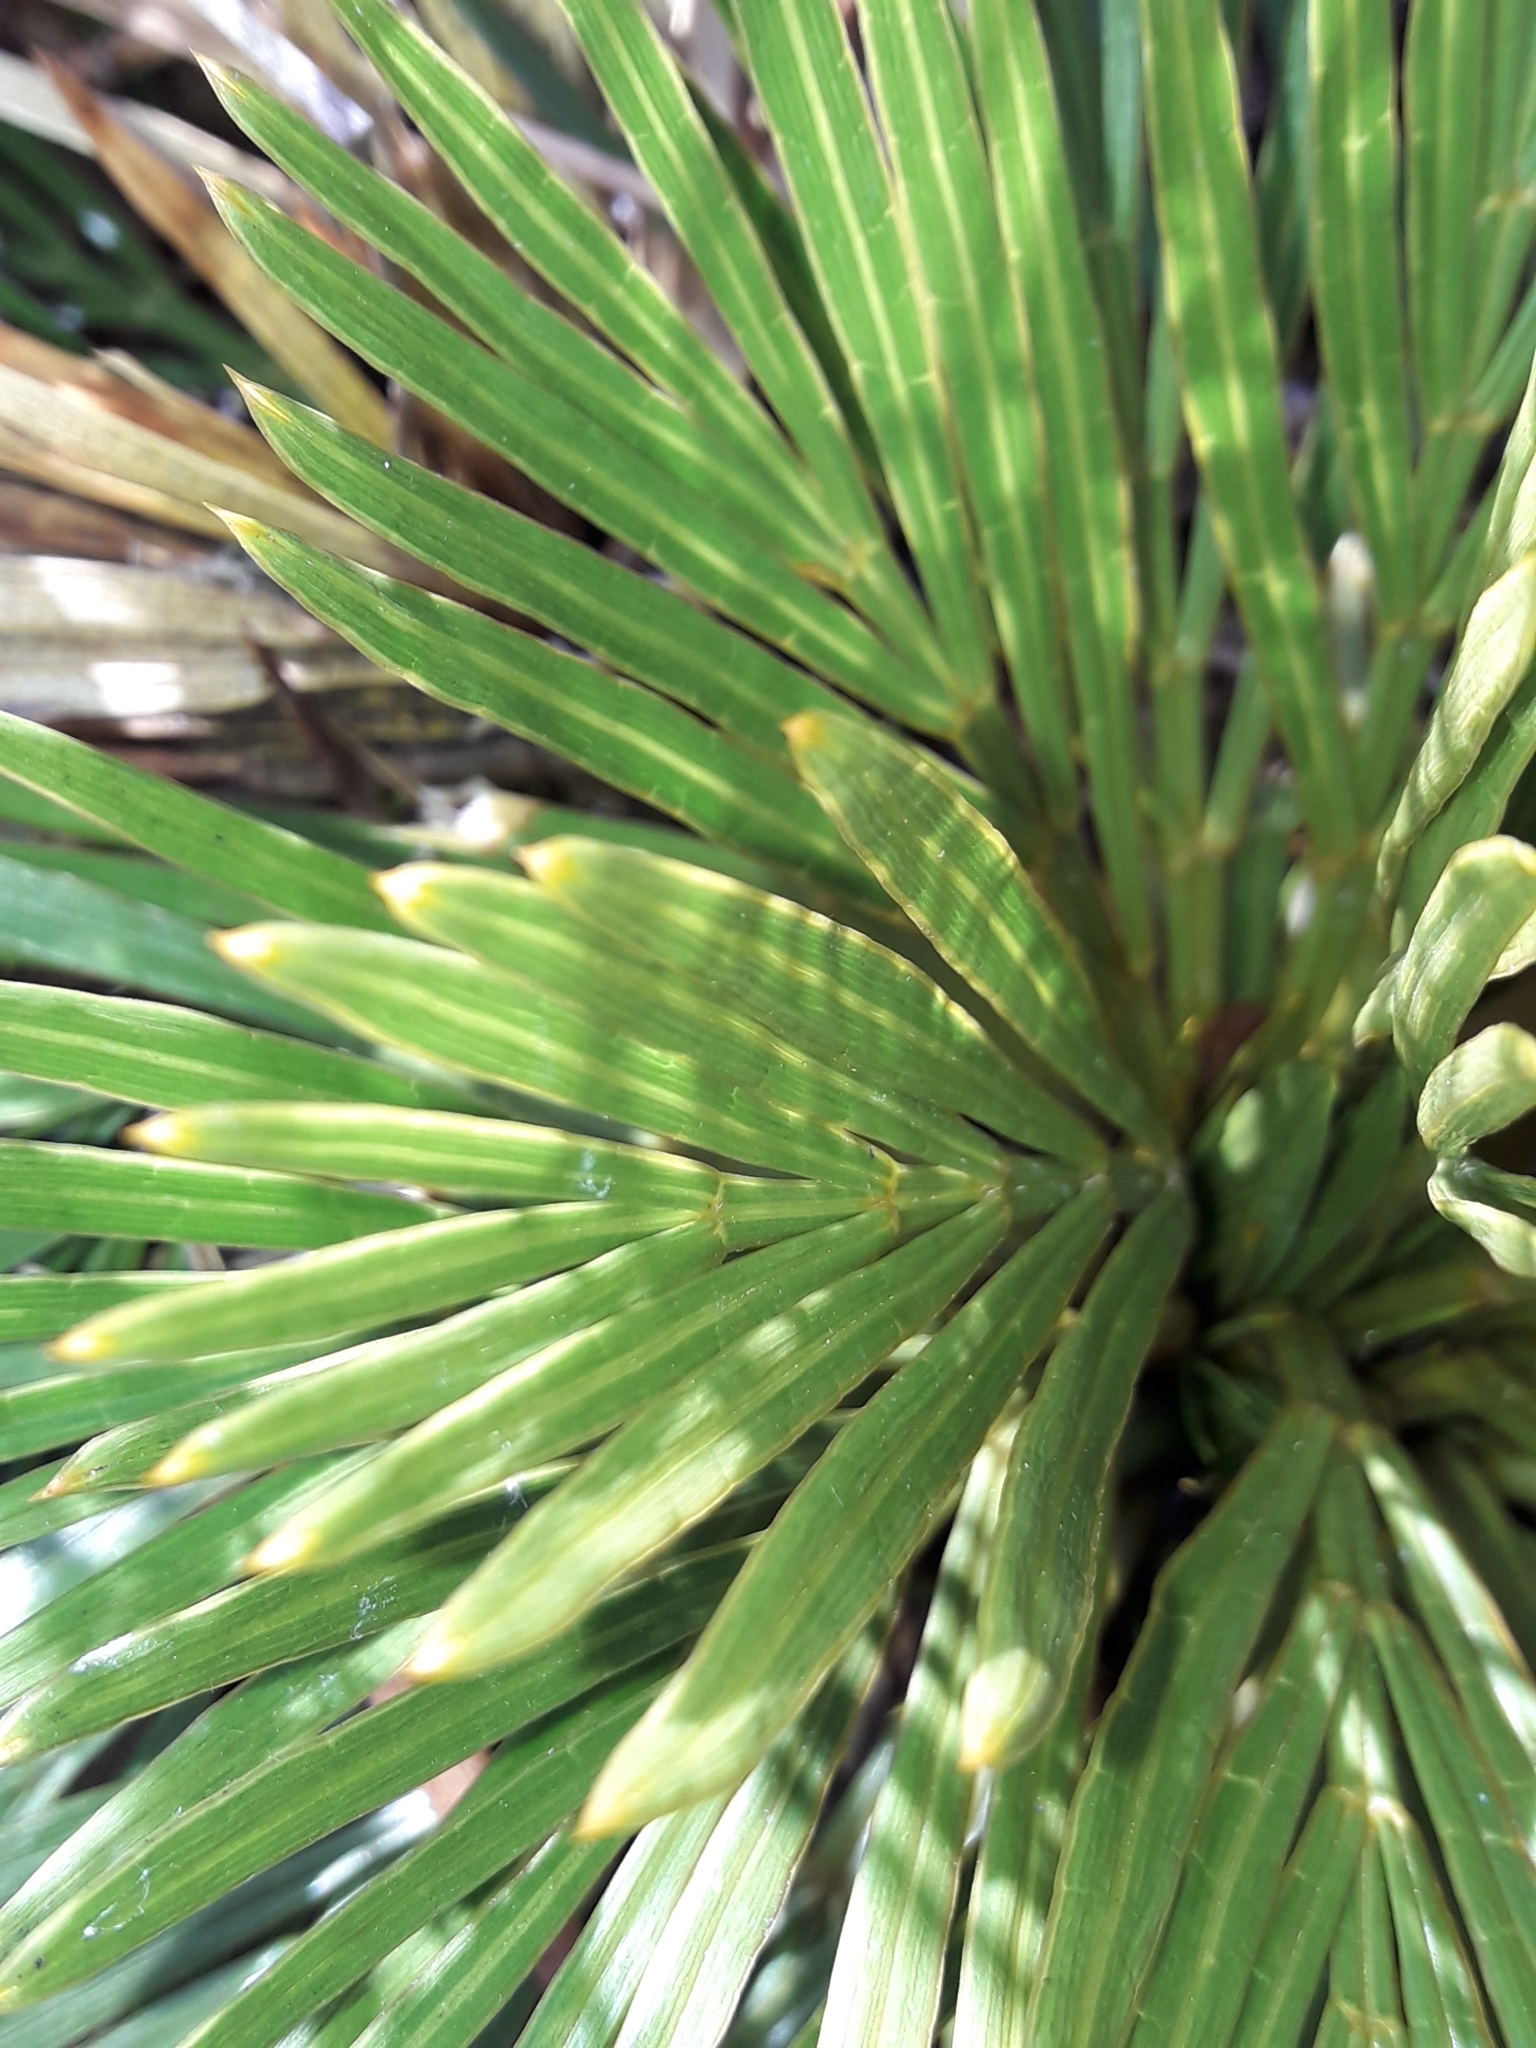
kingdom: Plantae
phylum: Tracheophyta
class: Magnoliopsida
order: Apiales
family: Apiaceae
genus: Aciphylla
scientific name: Aciphylla lecomtei
